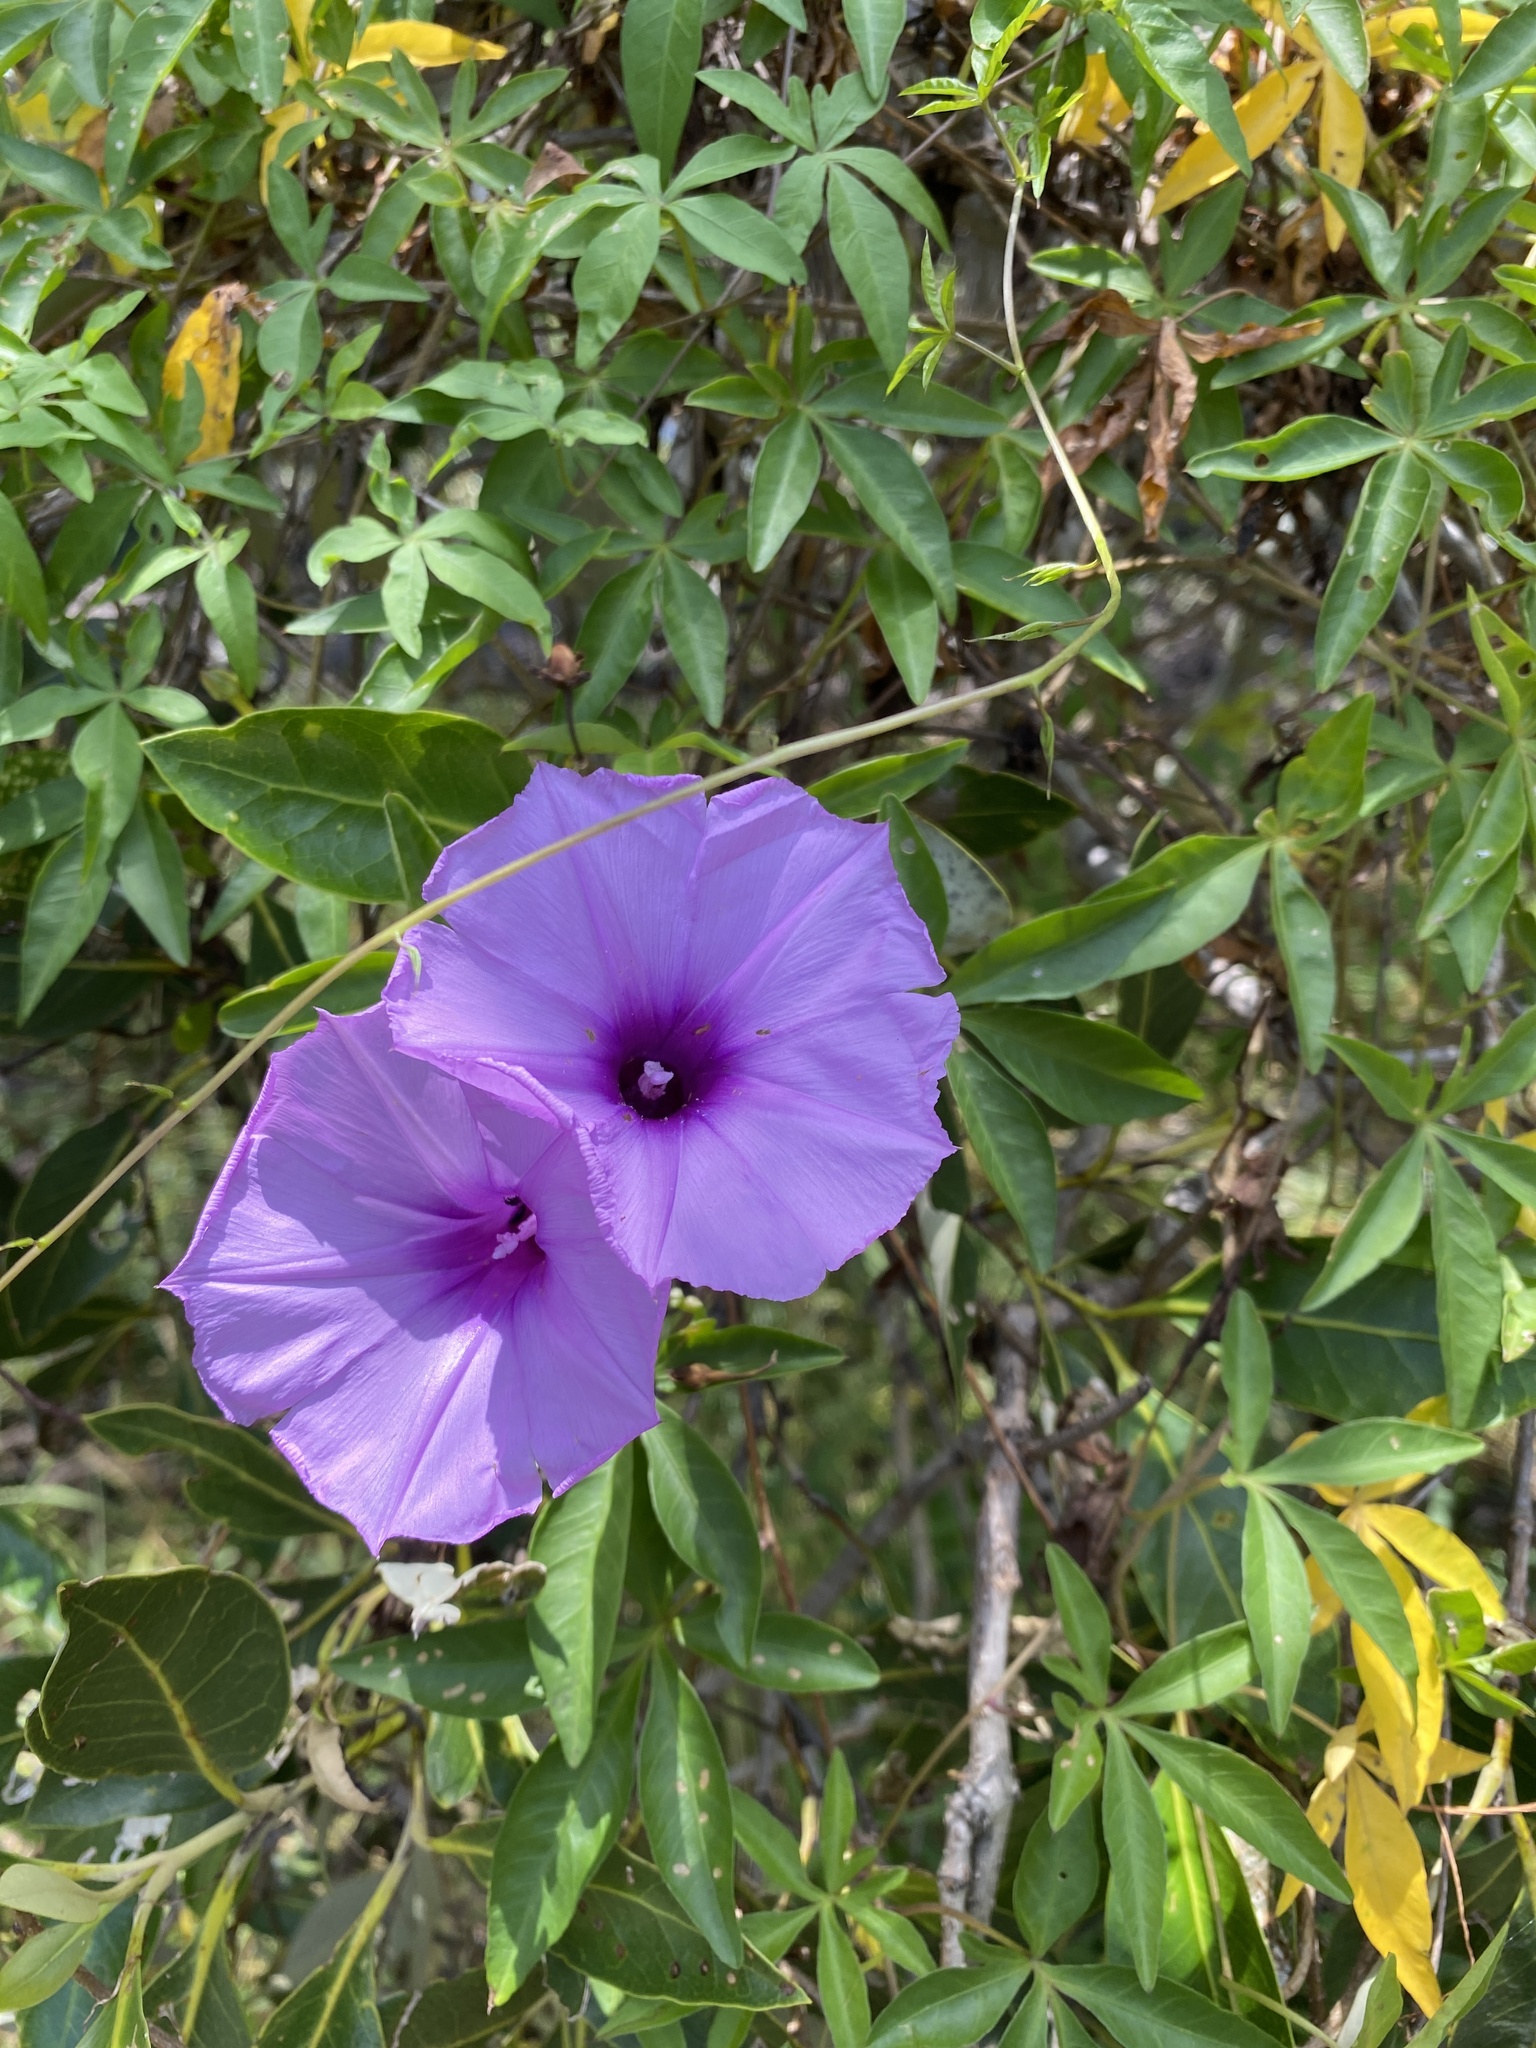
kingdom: Plantae
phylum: Tracheophyta
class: Magnoliopsida
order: Solanales
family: Convolvulaceae
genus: Ipomoea
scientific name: Ipomoea cairica
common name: Mile a minute vine
